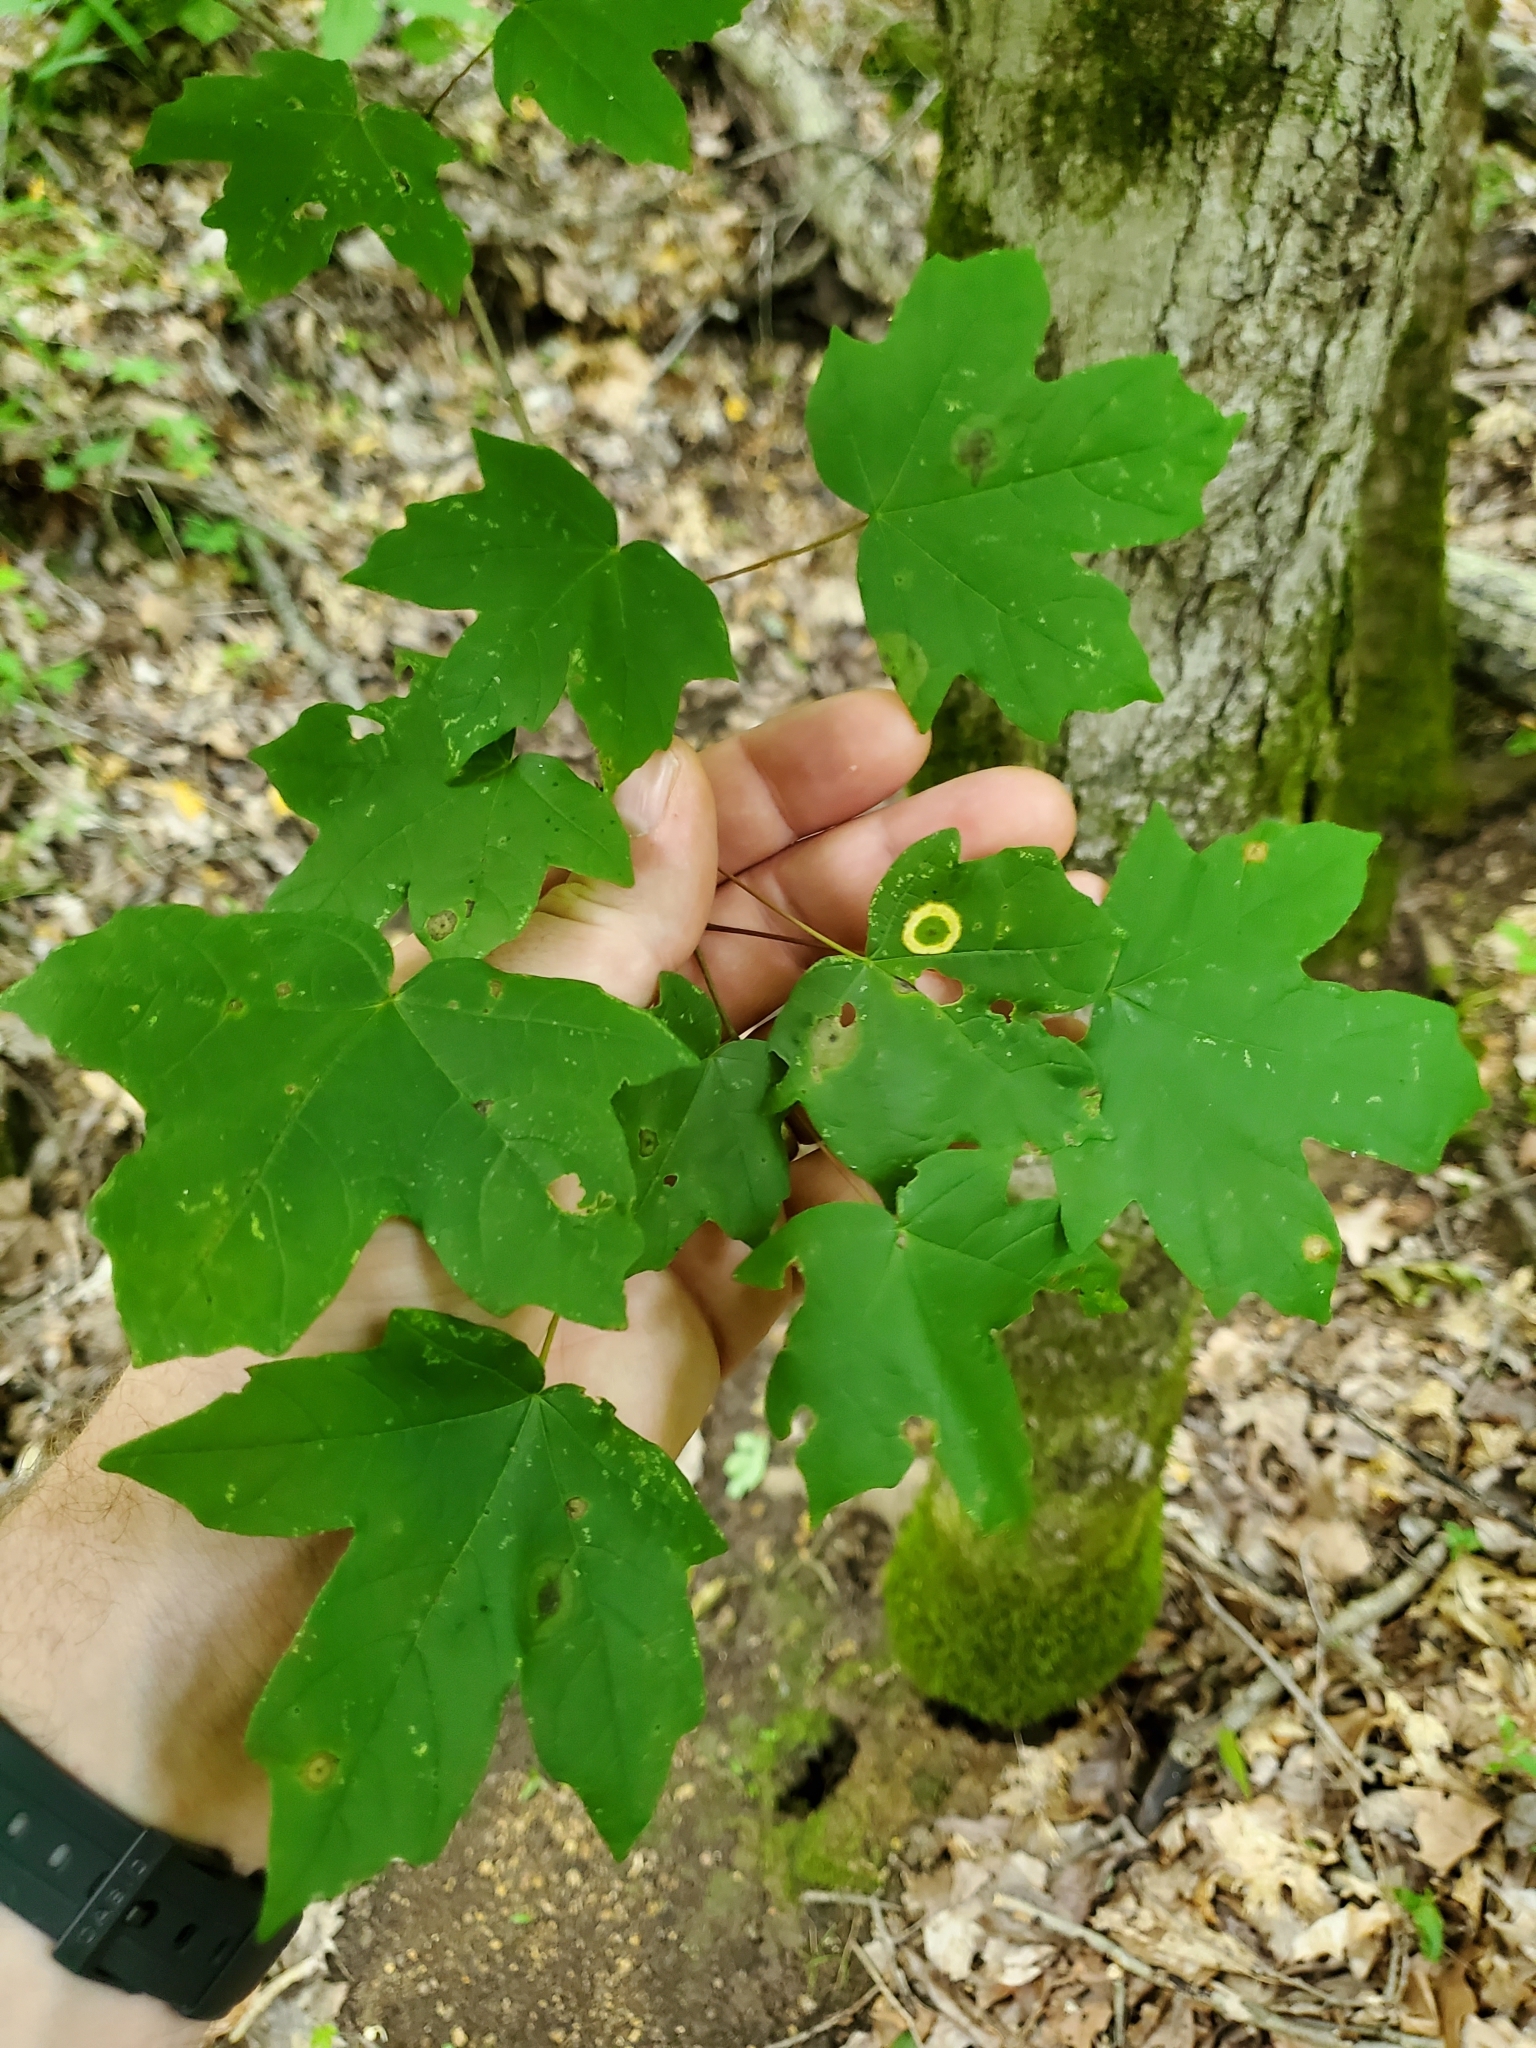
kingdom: Animalia
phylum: Arthropoda
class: Insecta
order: Diptera
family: Cecidomyiidae
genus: Acericecis
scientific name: Acericecis ocellaris
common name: Ocellate gall midge
